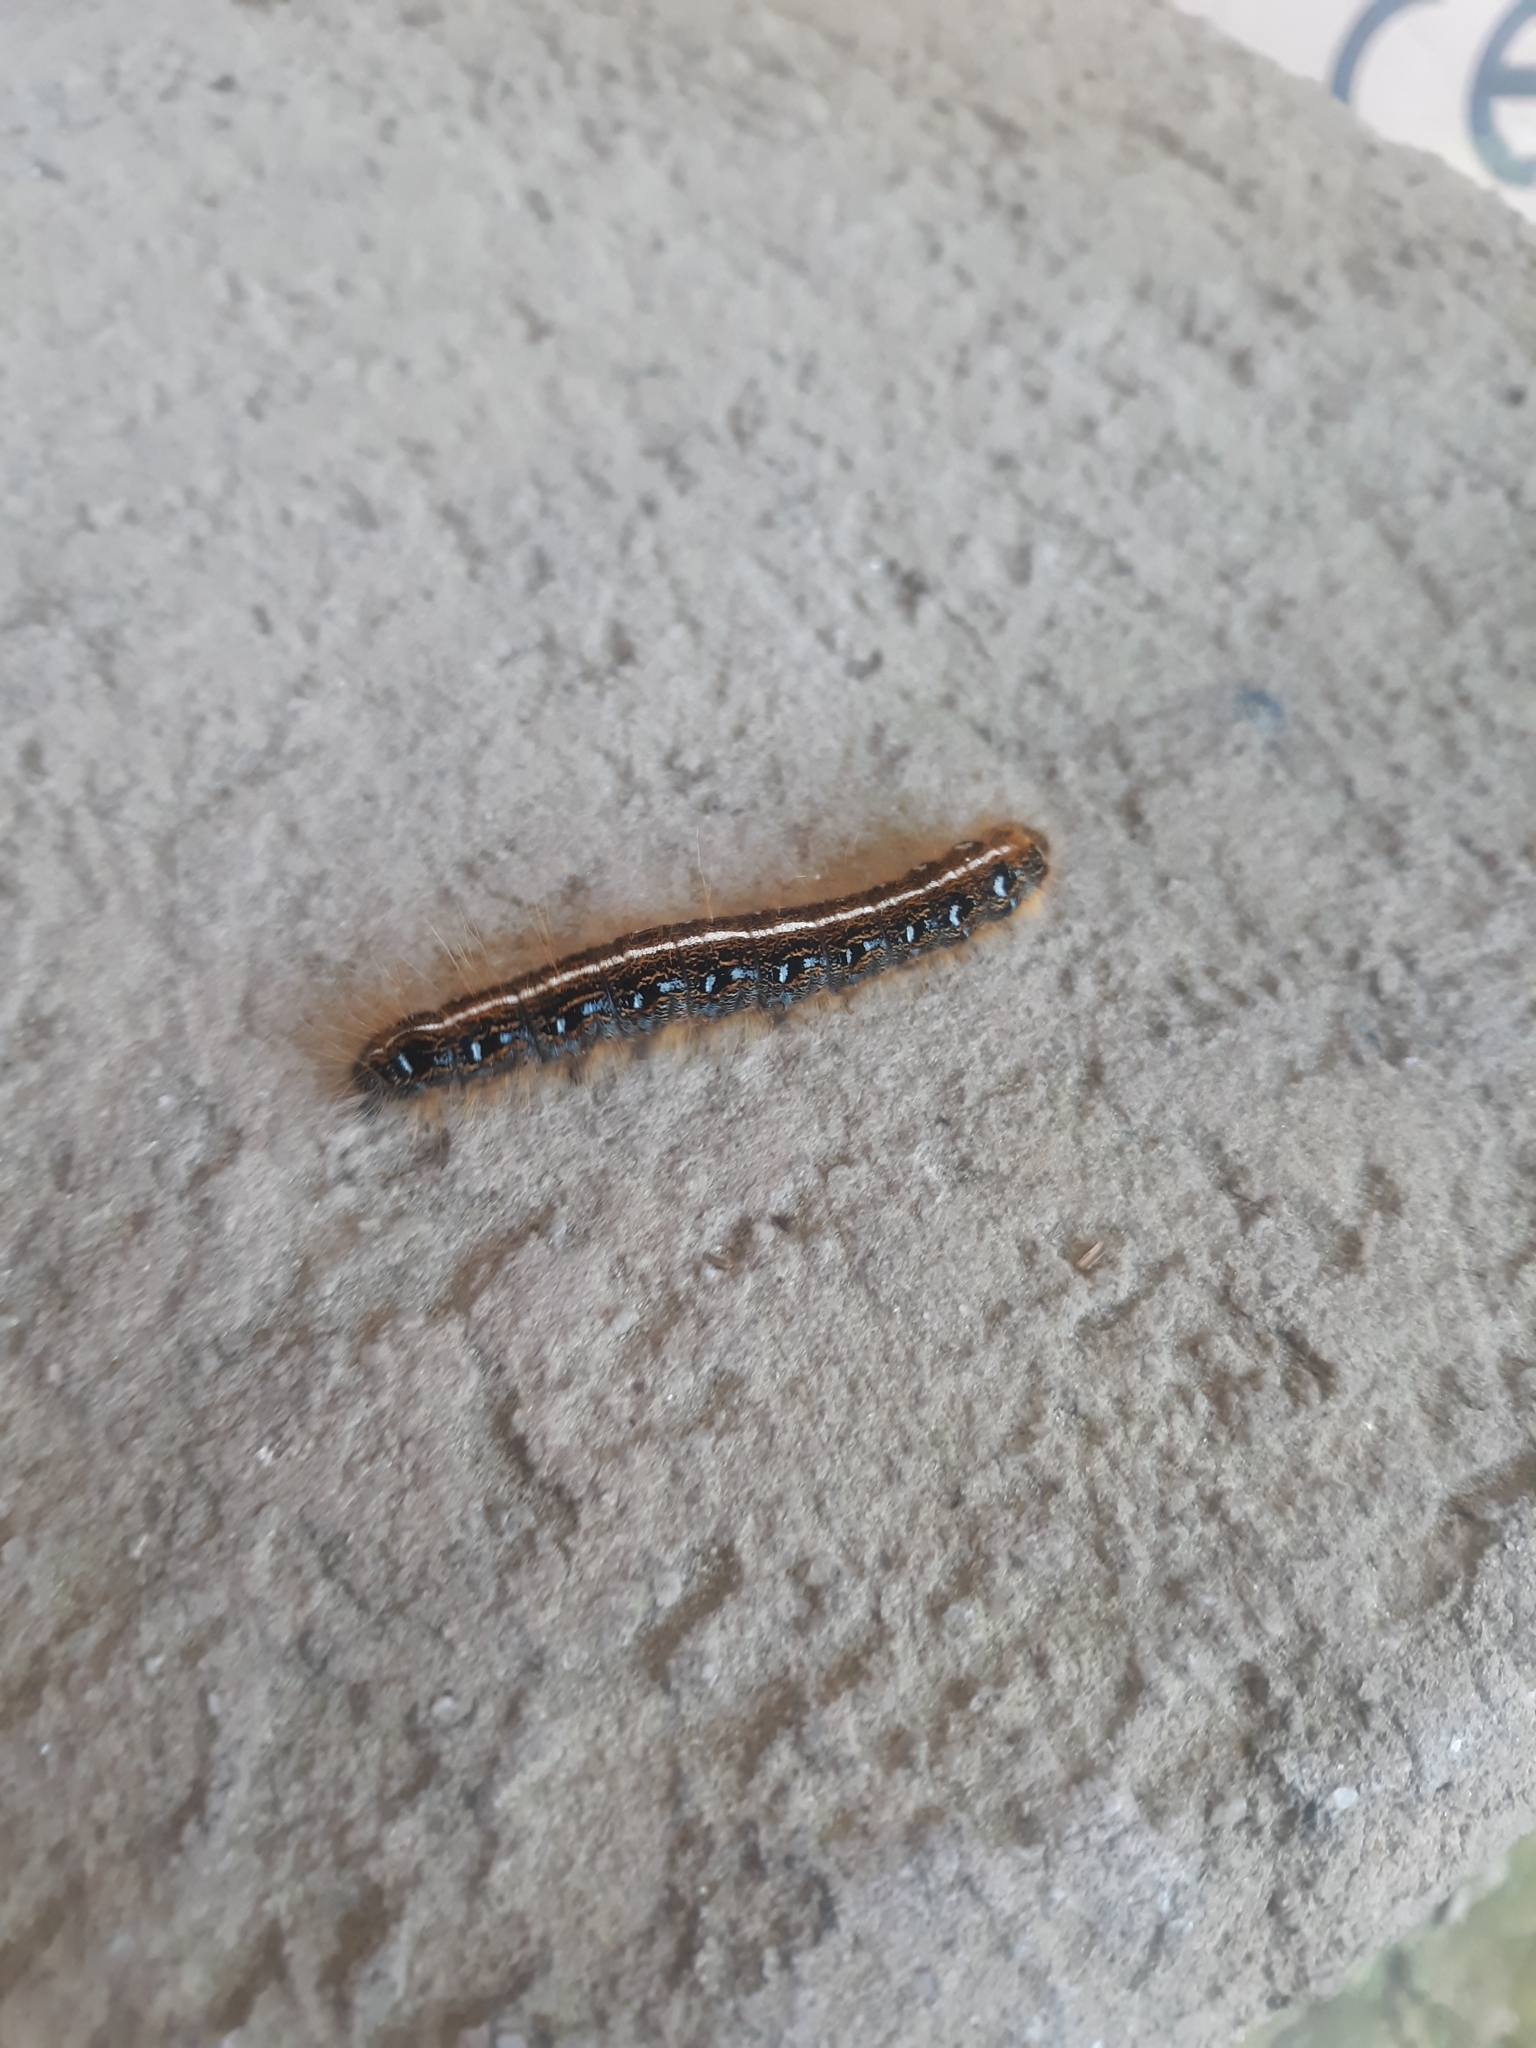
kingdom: Animalia
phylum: Arthropoda
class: Insecta
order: Lepidoptera
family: Lasiocampidae
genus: Malacosoma
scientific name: Malacosoma americana
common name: Eastern tent caterpillar moth
